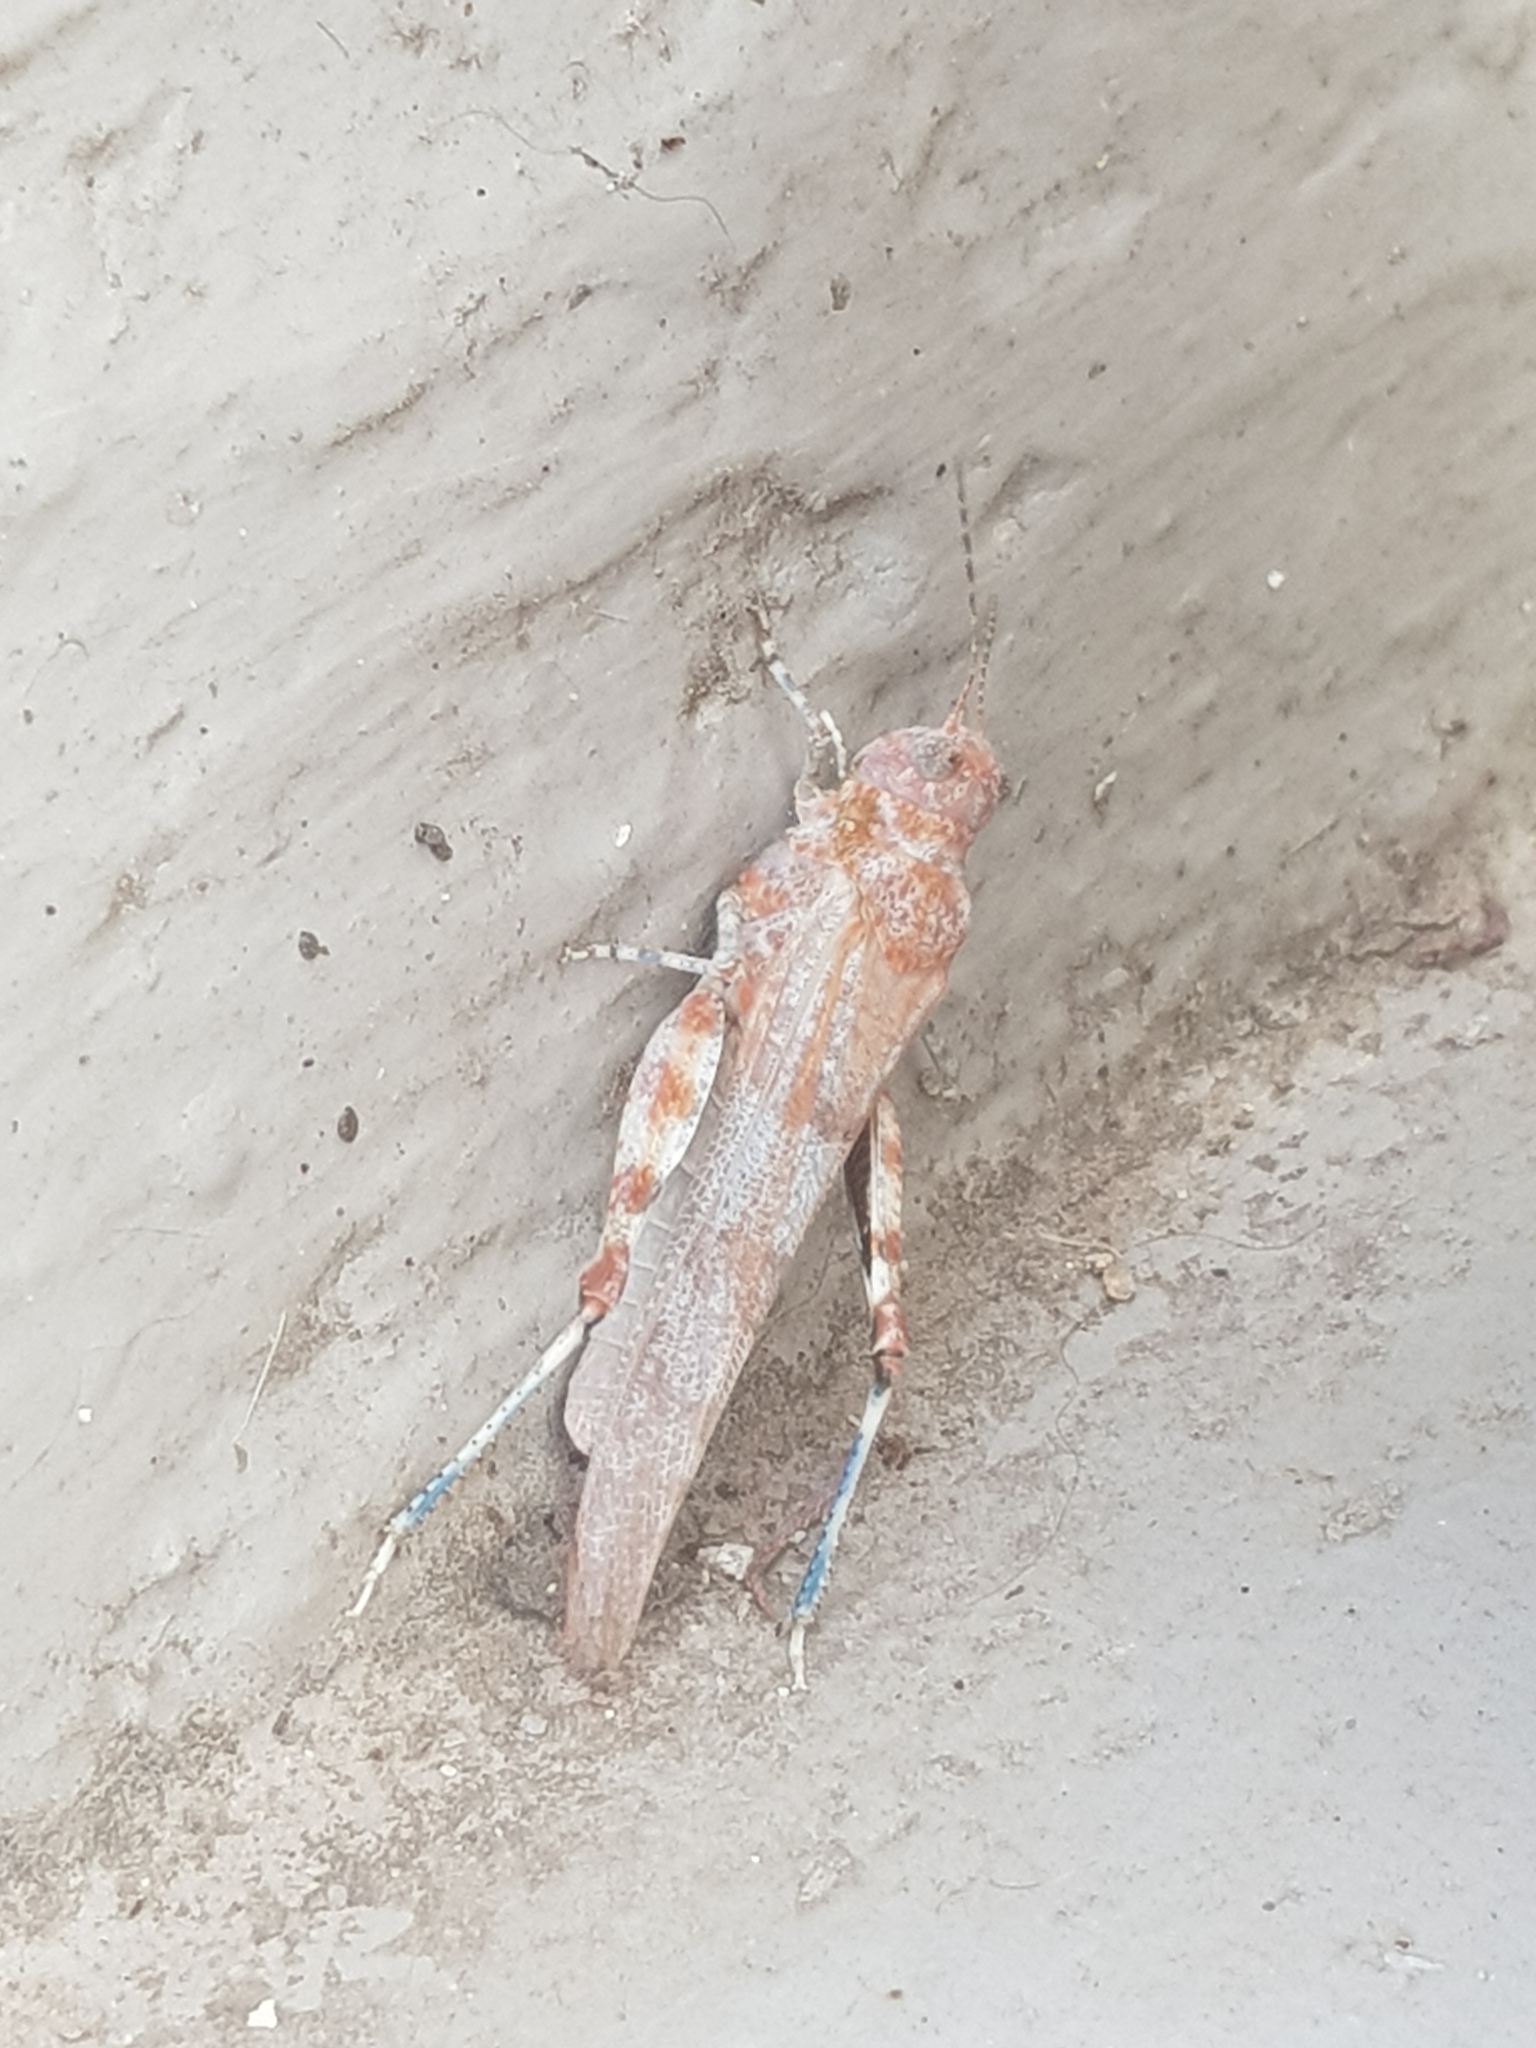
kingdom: Animalia
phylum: Arthropoda
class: Insecta
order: Orthoptera
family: Acrididae
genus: Sphingonotus
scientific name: Sphingonotus caerulans
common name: Blue-winged locust
